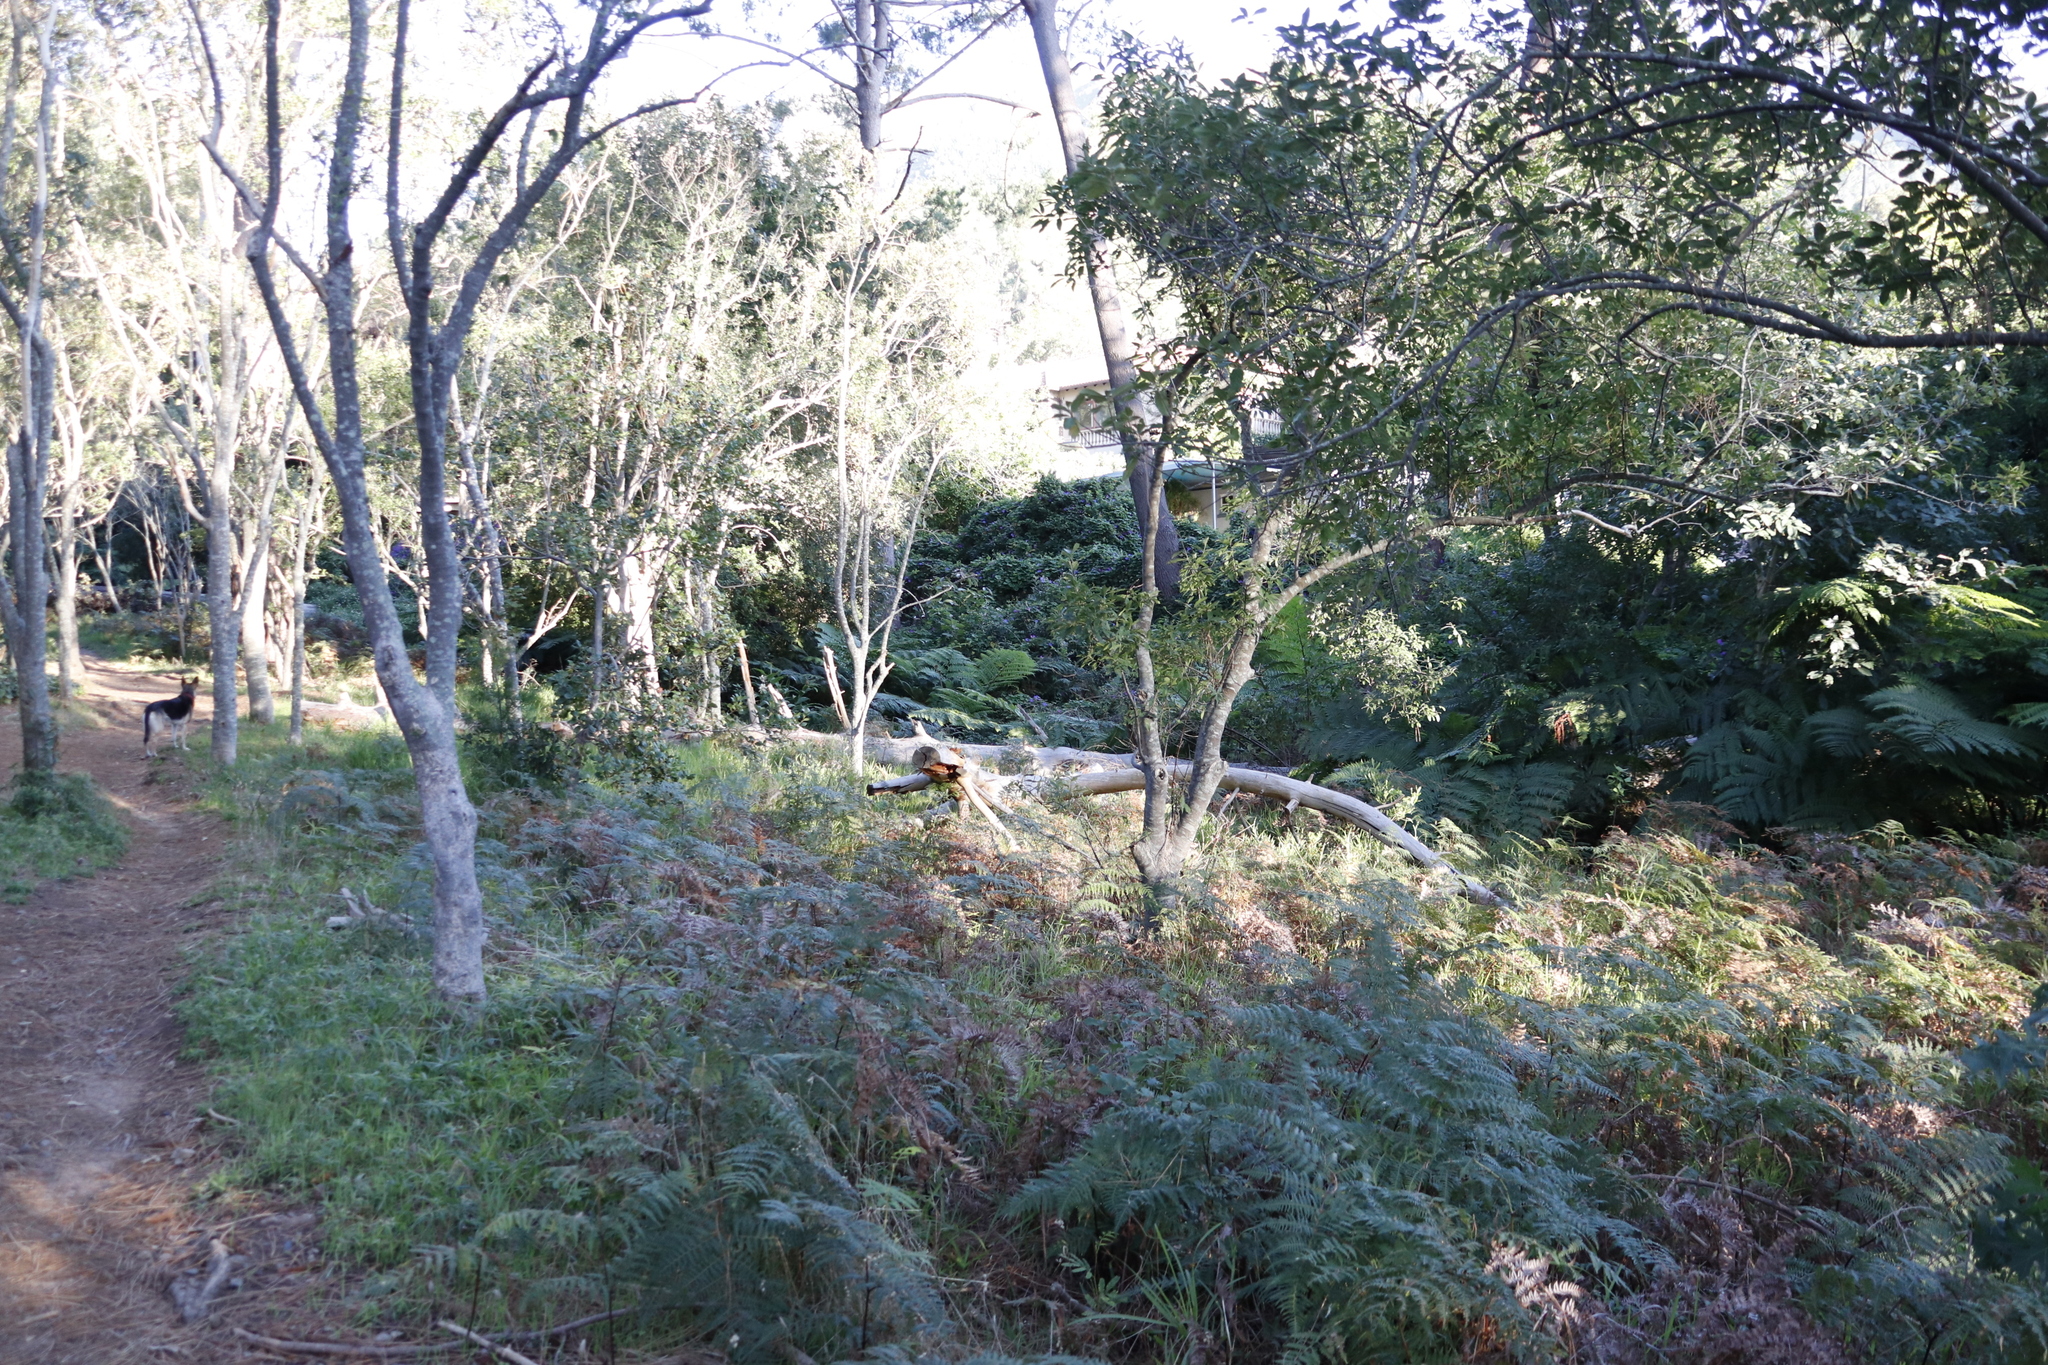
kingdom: Plantae
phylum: Tracheophyta
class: Polypodiopsida
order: Polypodiales
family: Dennstaedtiaceae
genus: Pteridium
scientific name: Pteridium aquilinum
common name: Bracken
